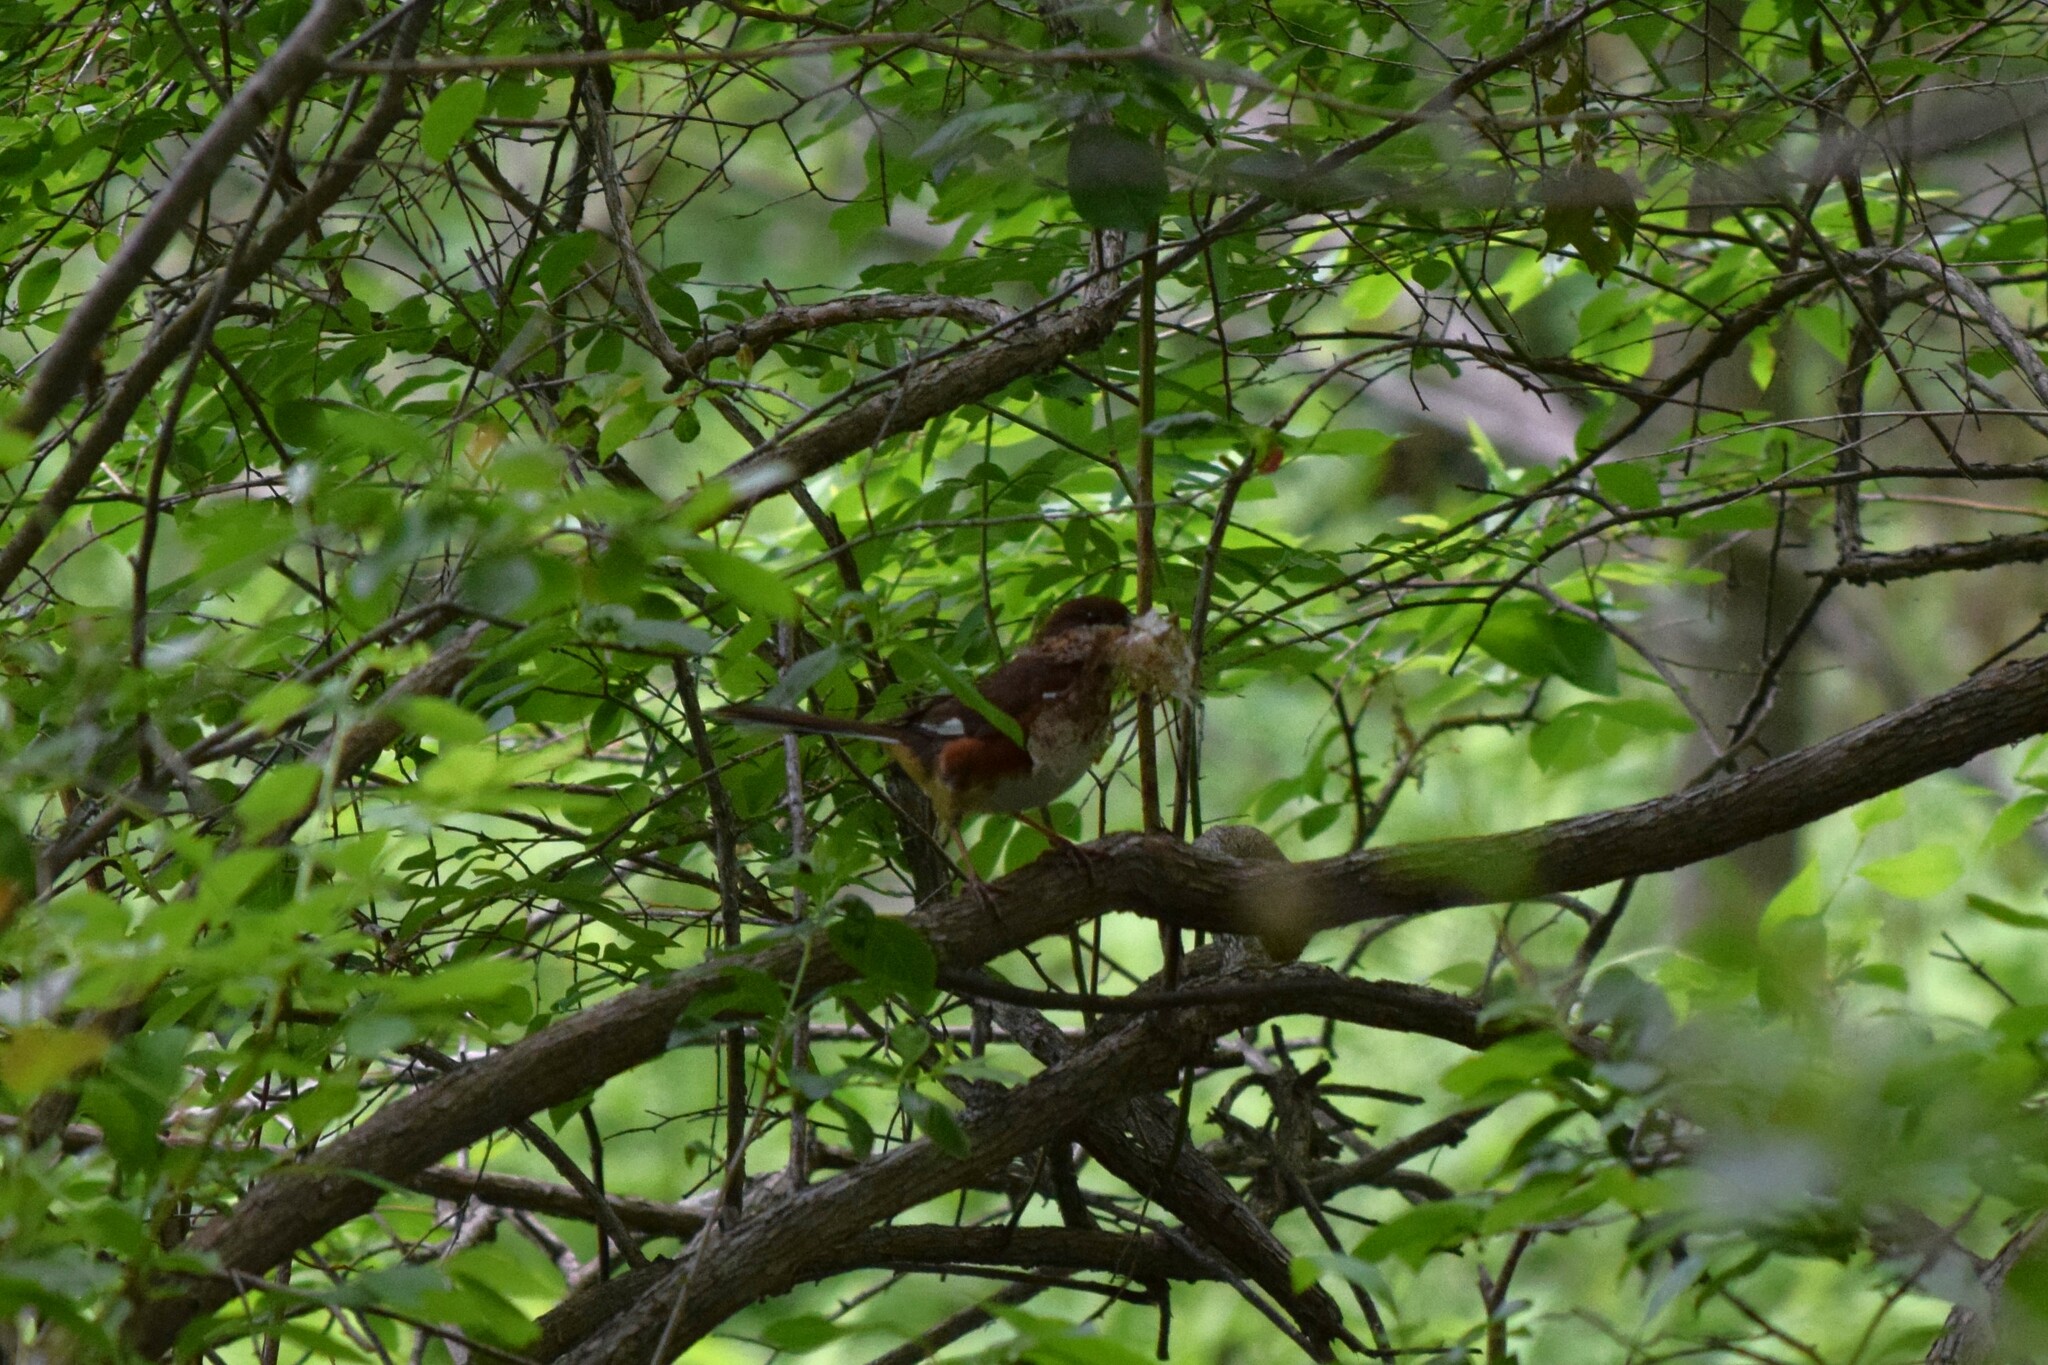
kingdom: Animalia
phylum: Chordata
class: Aves
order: Passeriformes
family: Passerellidae
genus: Pipilo
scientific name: Pipilo erythrophthalmus
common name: Eastern towhee
